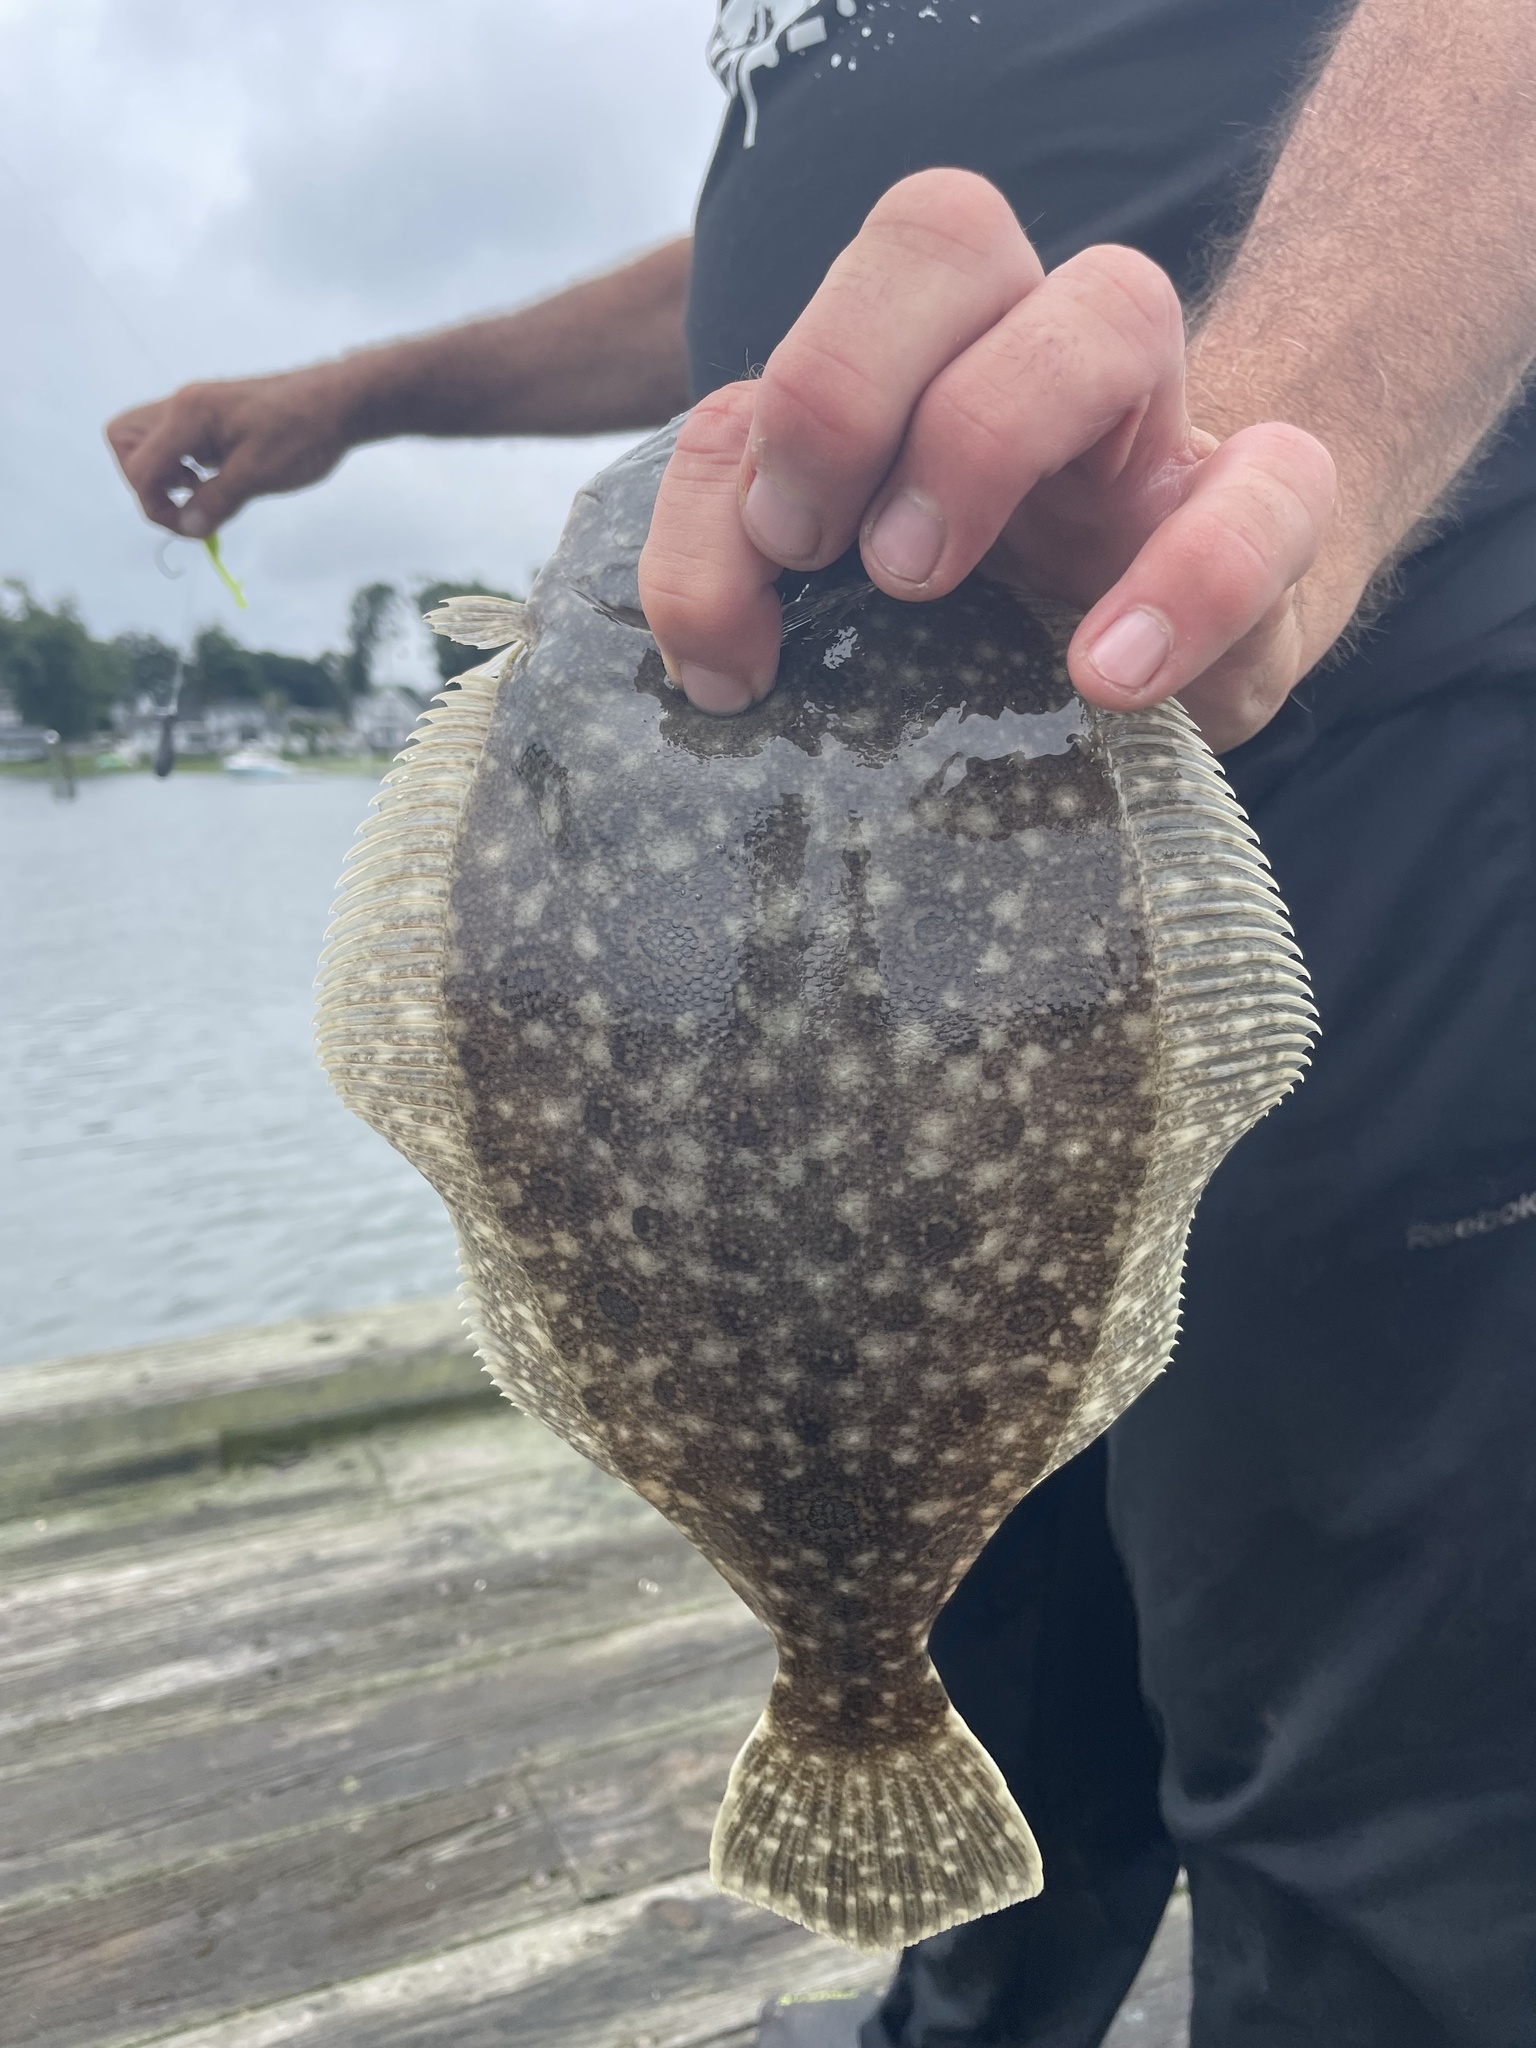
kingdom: Animalia
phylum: Chordata
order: Pleuronectiformes
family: Paralichthyidae
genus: Paralichthys
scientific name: Paralichthys dentatus
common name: Summer flounder
